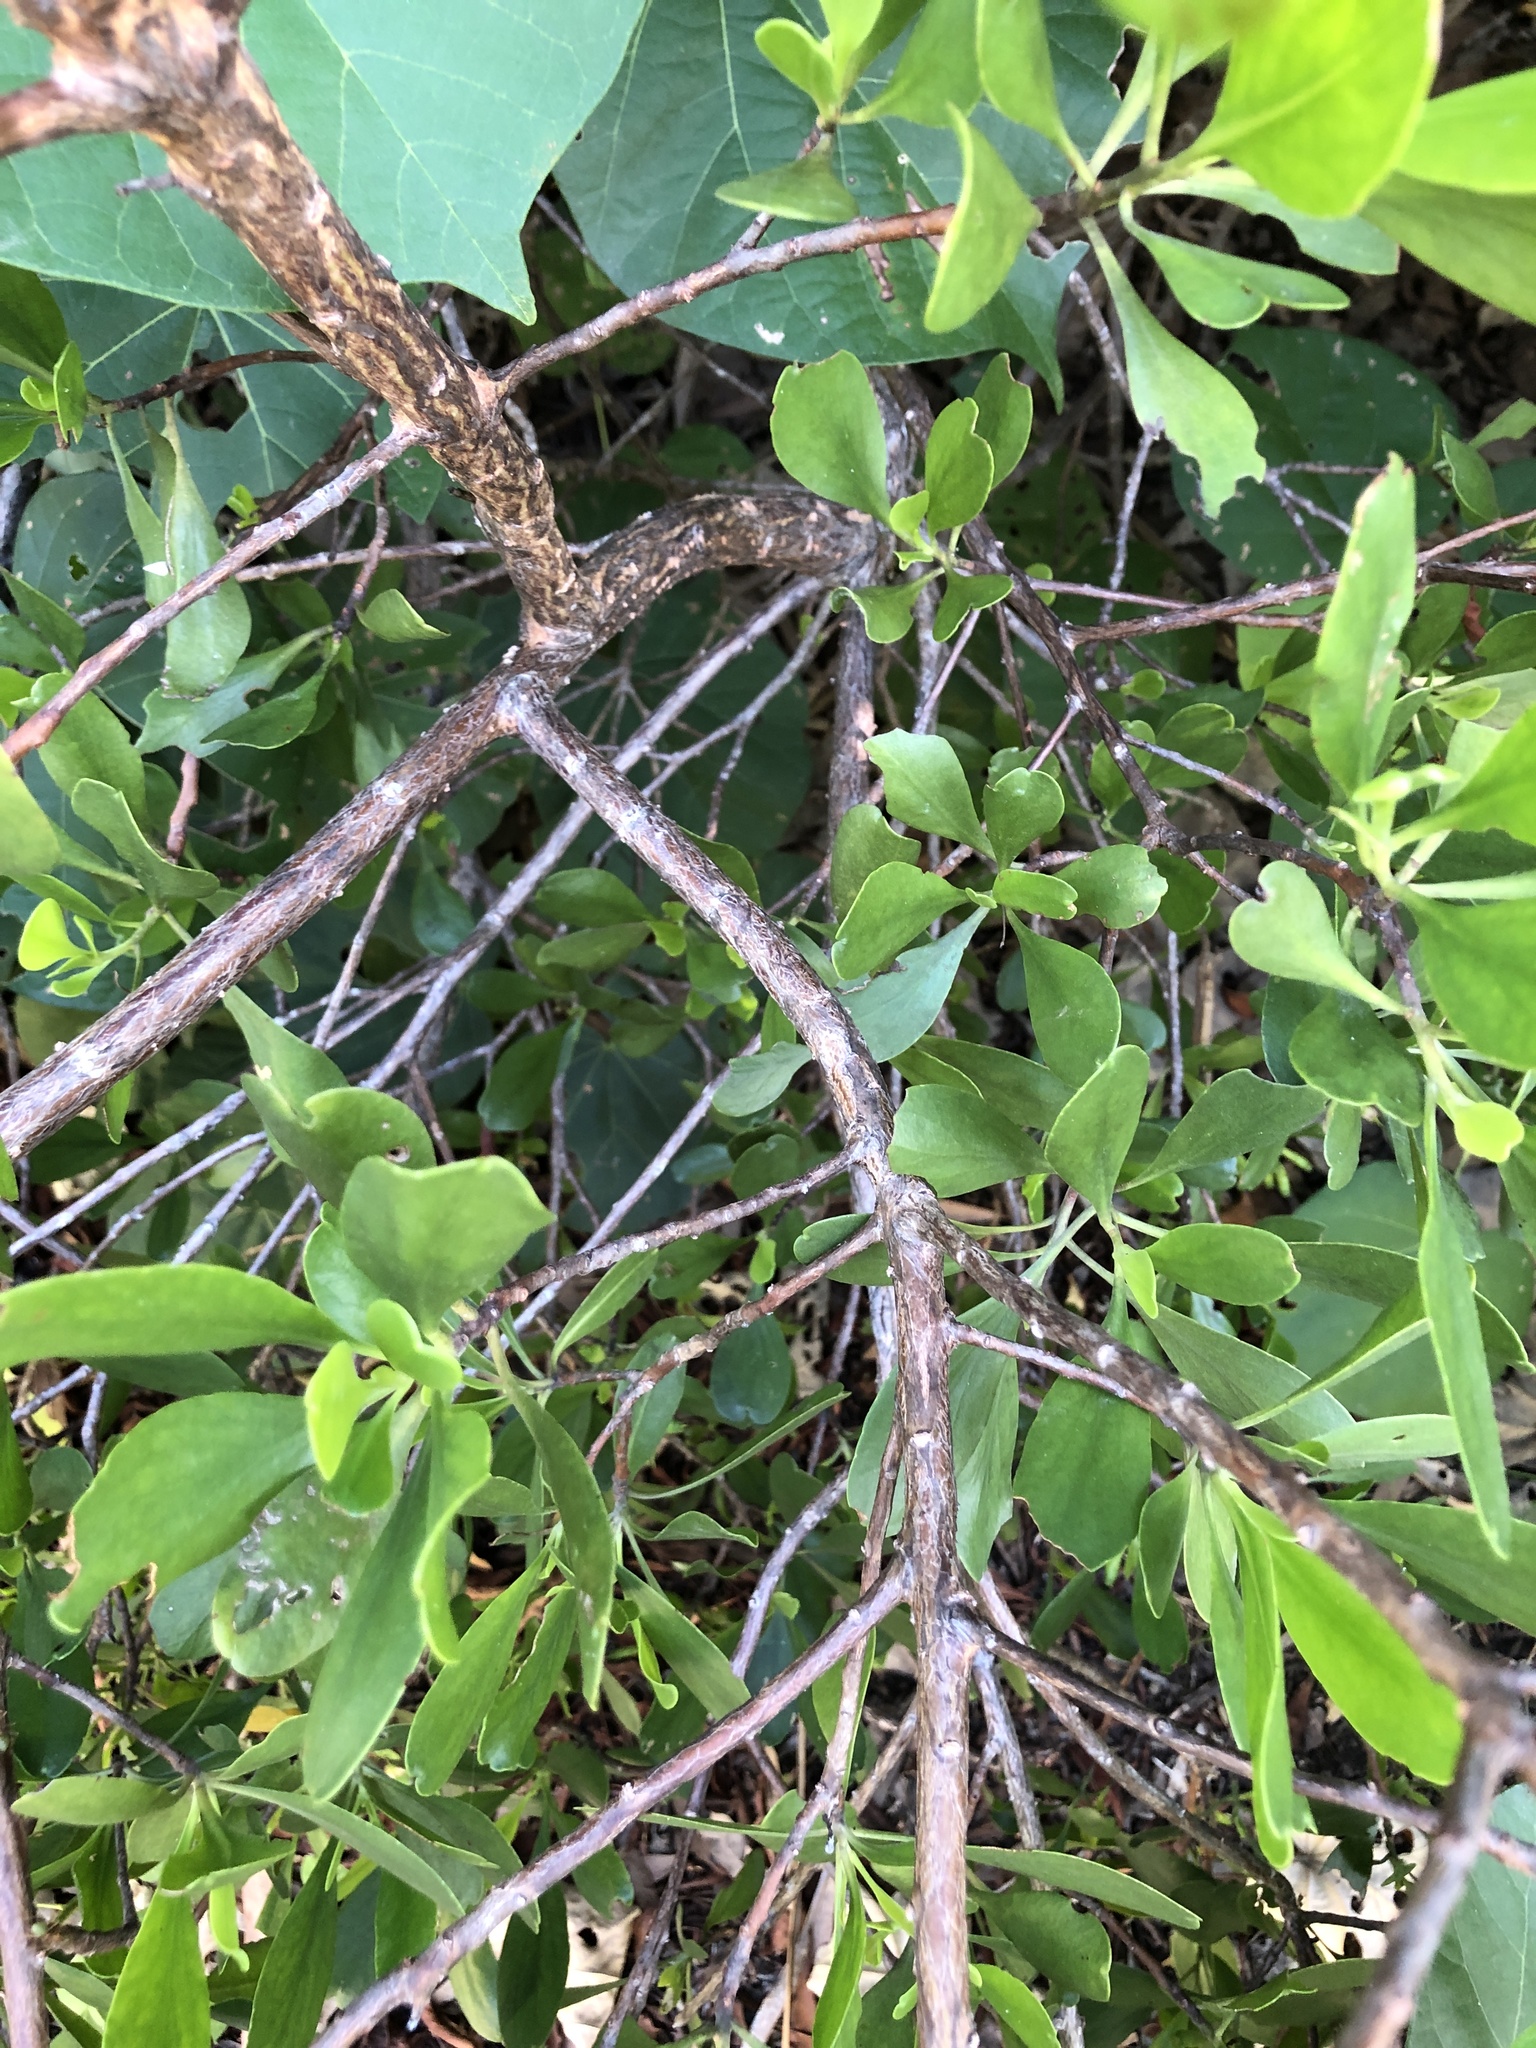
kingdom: Plantae
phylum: Tracheophyta
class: Magnoliopsida
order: Myrtales
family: Combretaceae
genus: Lumnitzera
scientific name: Lumnitzera racemosa
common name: White-flowered black mangrove
